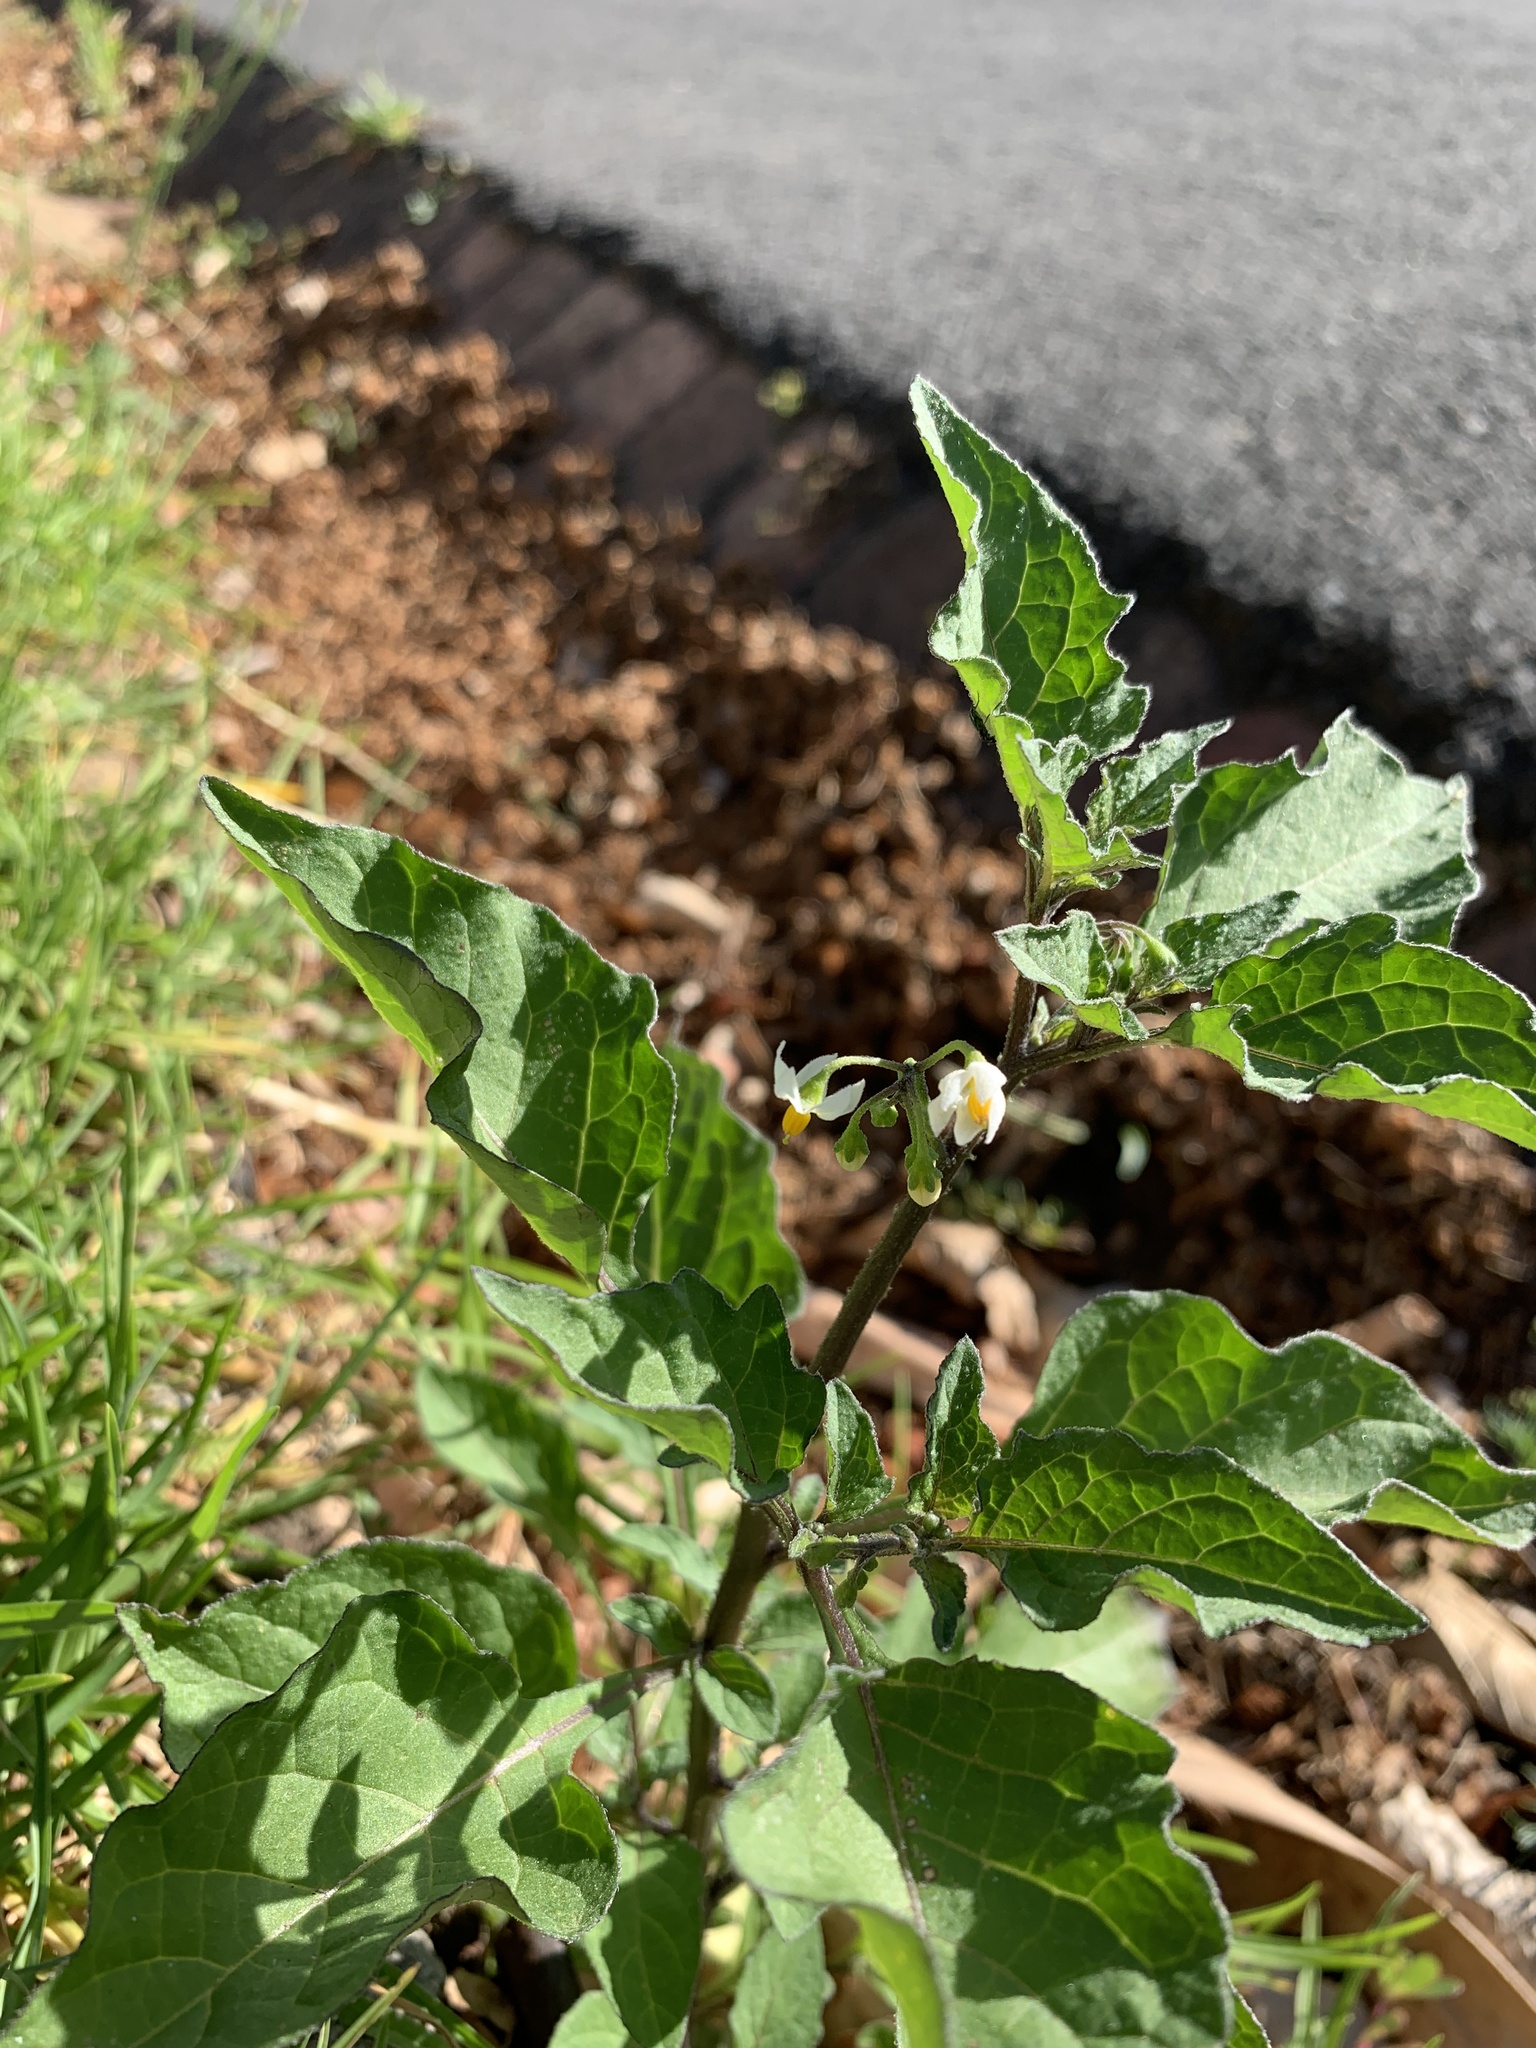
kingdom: Plantae
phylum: Tracheophyta
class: Magnoliopsida
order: Solanales
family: Solanaceae
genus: Solanum
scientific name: Solanum nigrum
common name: Black nightshade
